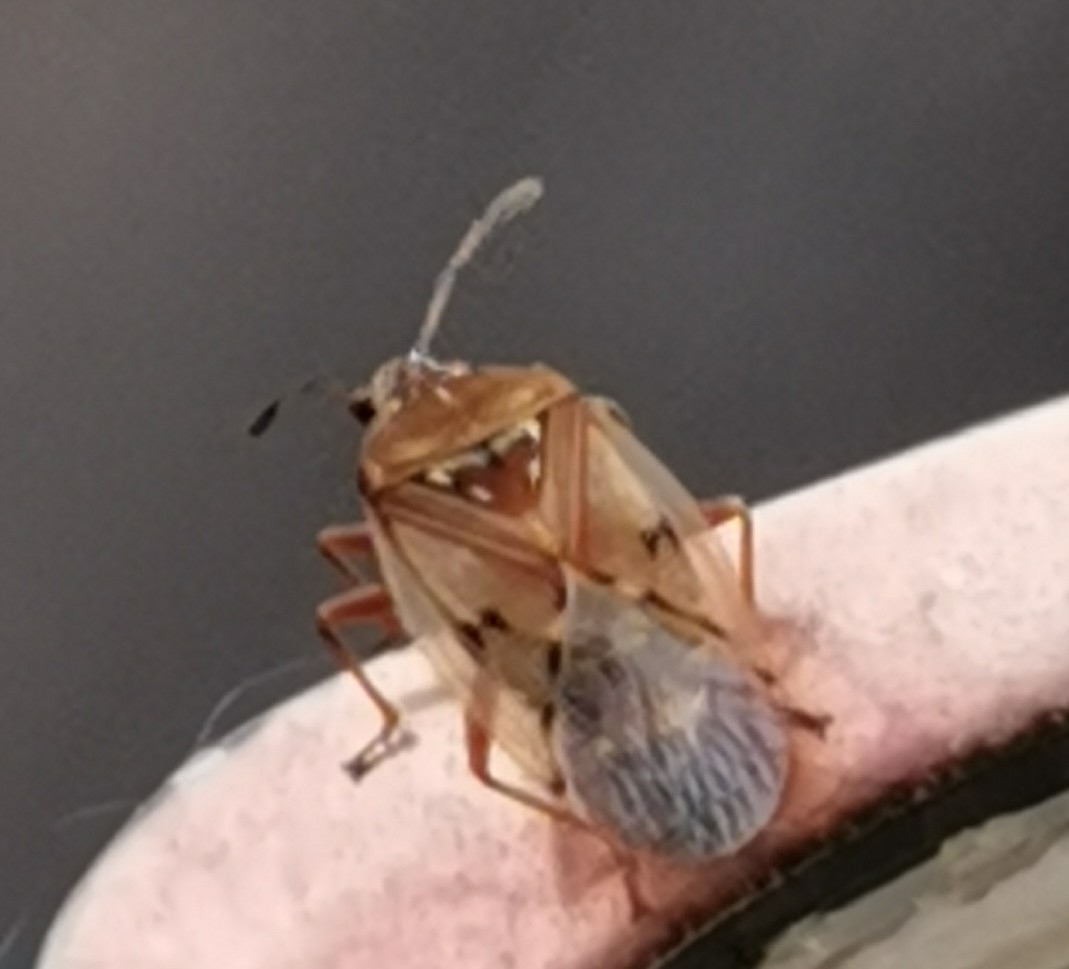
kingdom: Animalia
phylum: Arthropoda
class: Insecta
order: Hemiptera
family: Lygaeidae
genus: Kleidocerys
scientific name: Kleidocerys resedae
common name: Birch catkin bug
